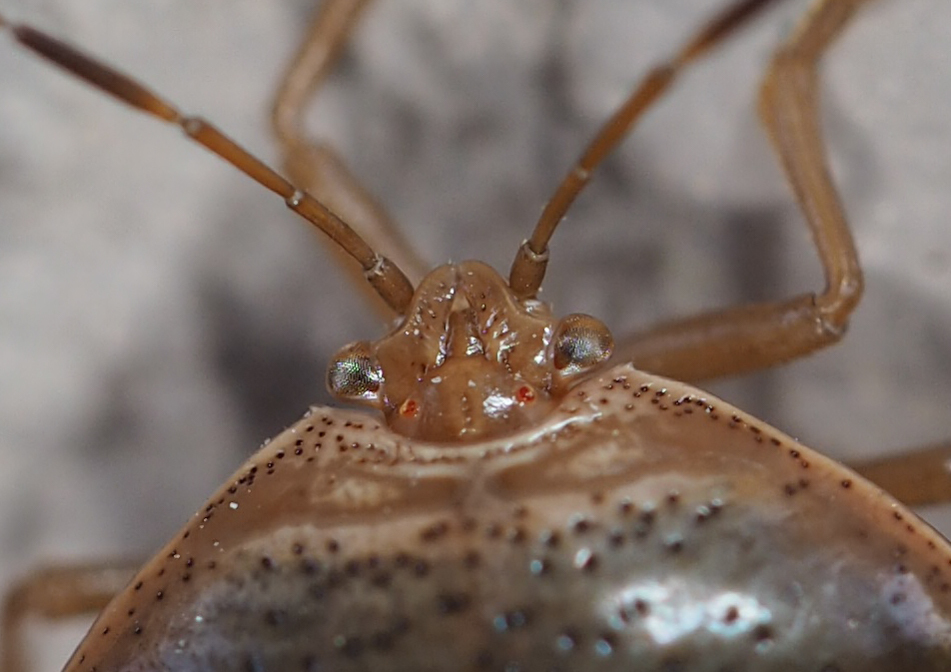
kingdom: Animalia
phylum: Arthropoda
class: Insecta
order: Hemiptera
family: Pentatomidae
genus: Edessa
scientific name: Edessa bifida
